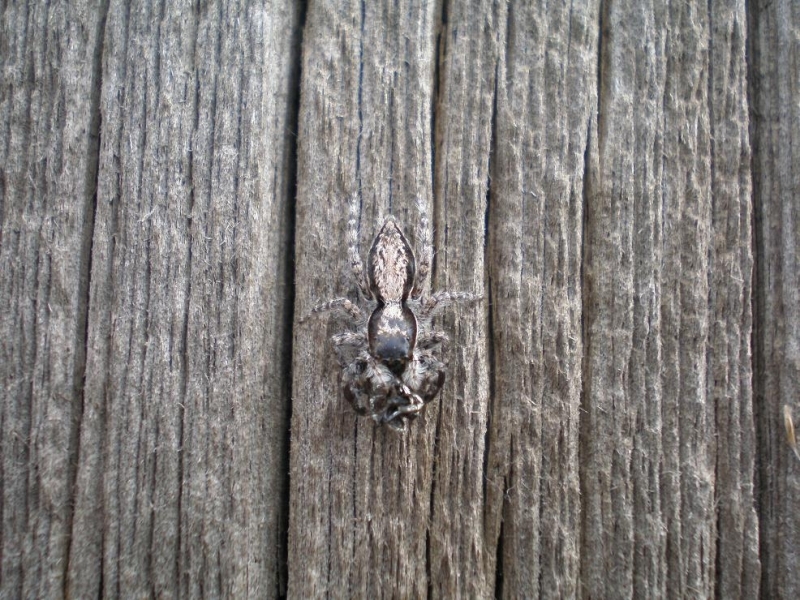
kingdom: Animalia
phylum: Arthropoda
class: Arachnida
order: Araneae
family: Salticidae
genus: Menemerus
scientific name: Menemerus bivittatus
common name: Gray wall jumper
